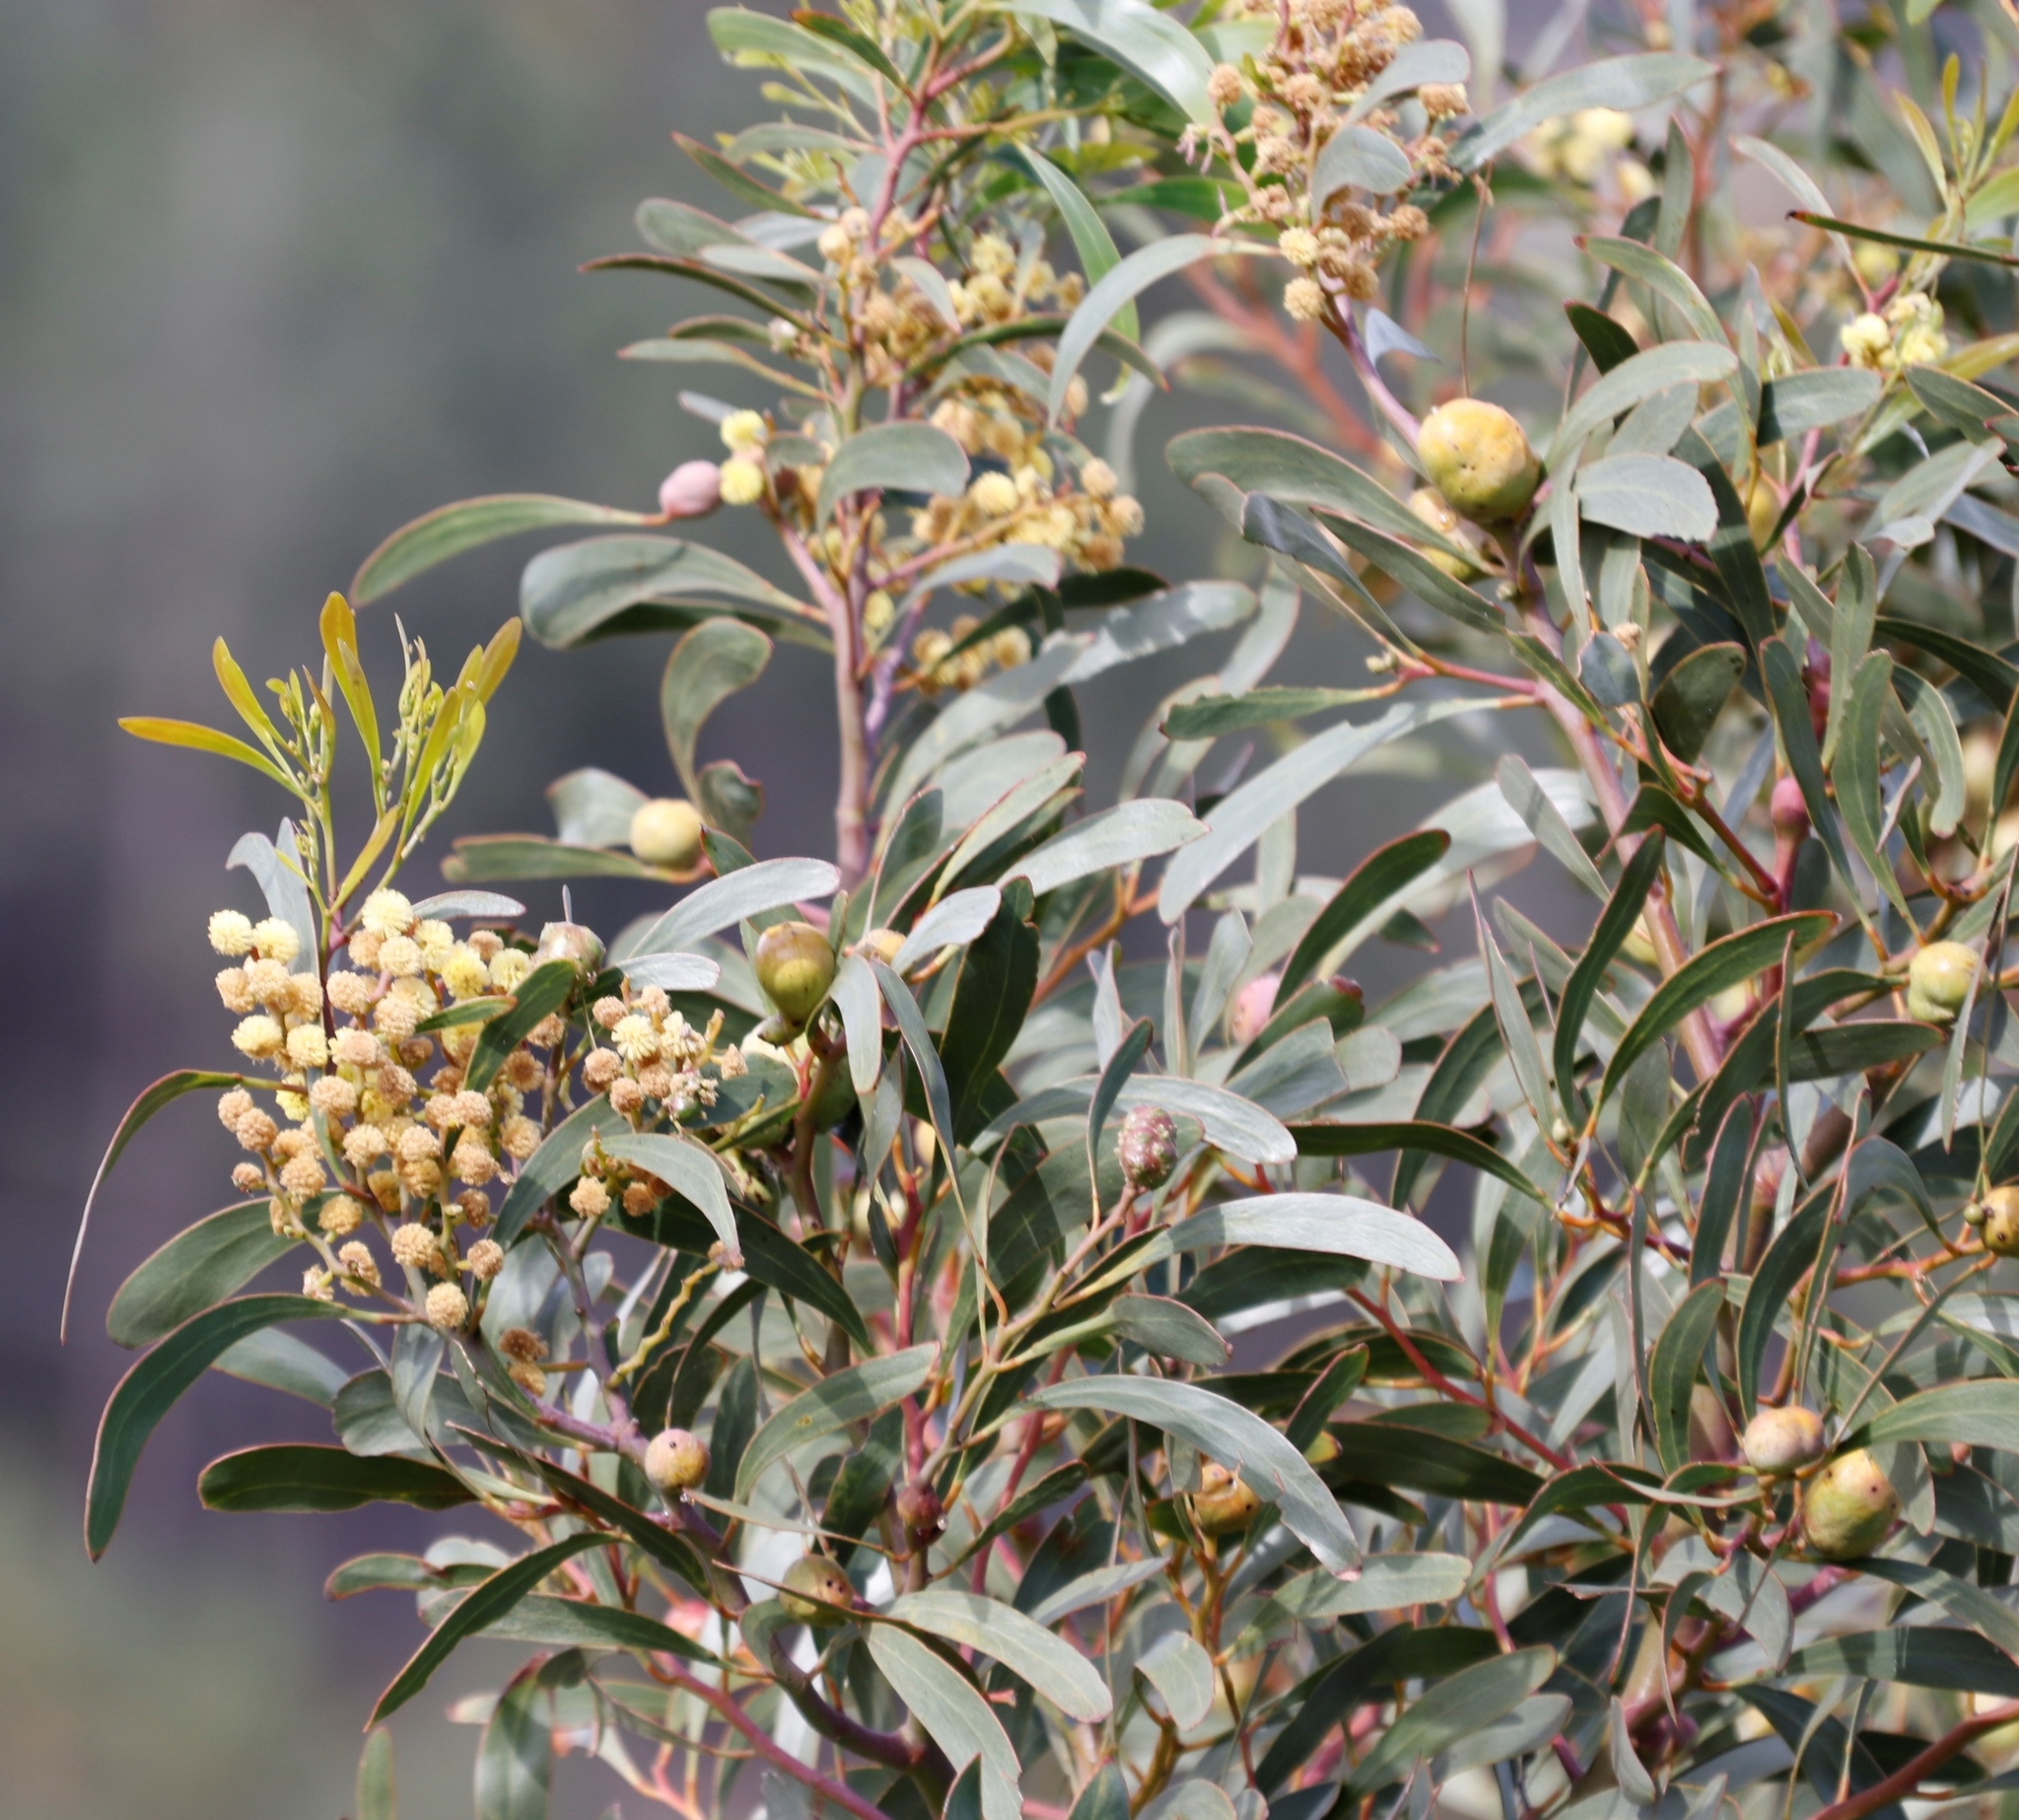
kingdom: Animalia
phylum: Arthropoda
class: Insecta
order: Hymenoptera
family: Pteromalidae
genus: Trichilogaster
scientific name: Trichilogaster signiventris
